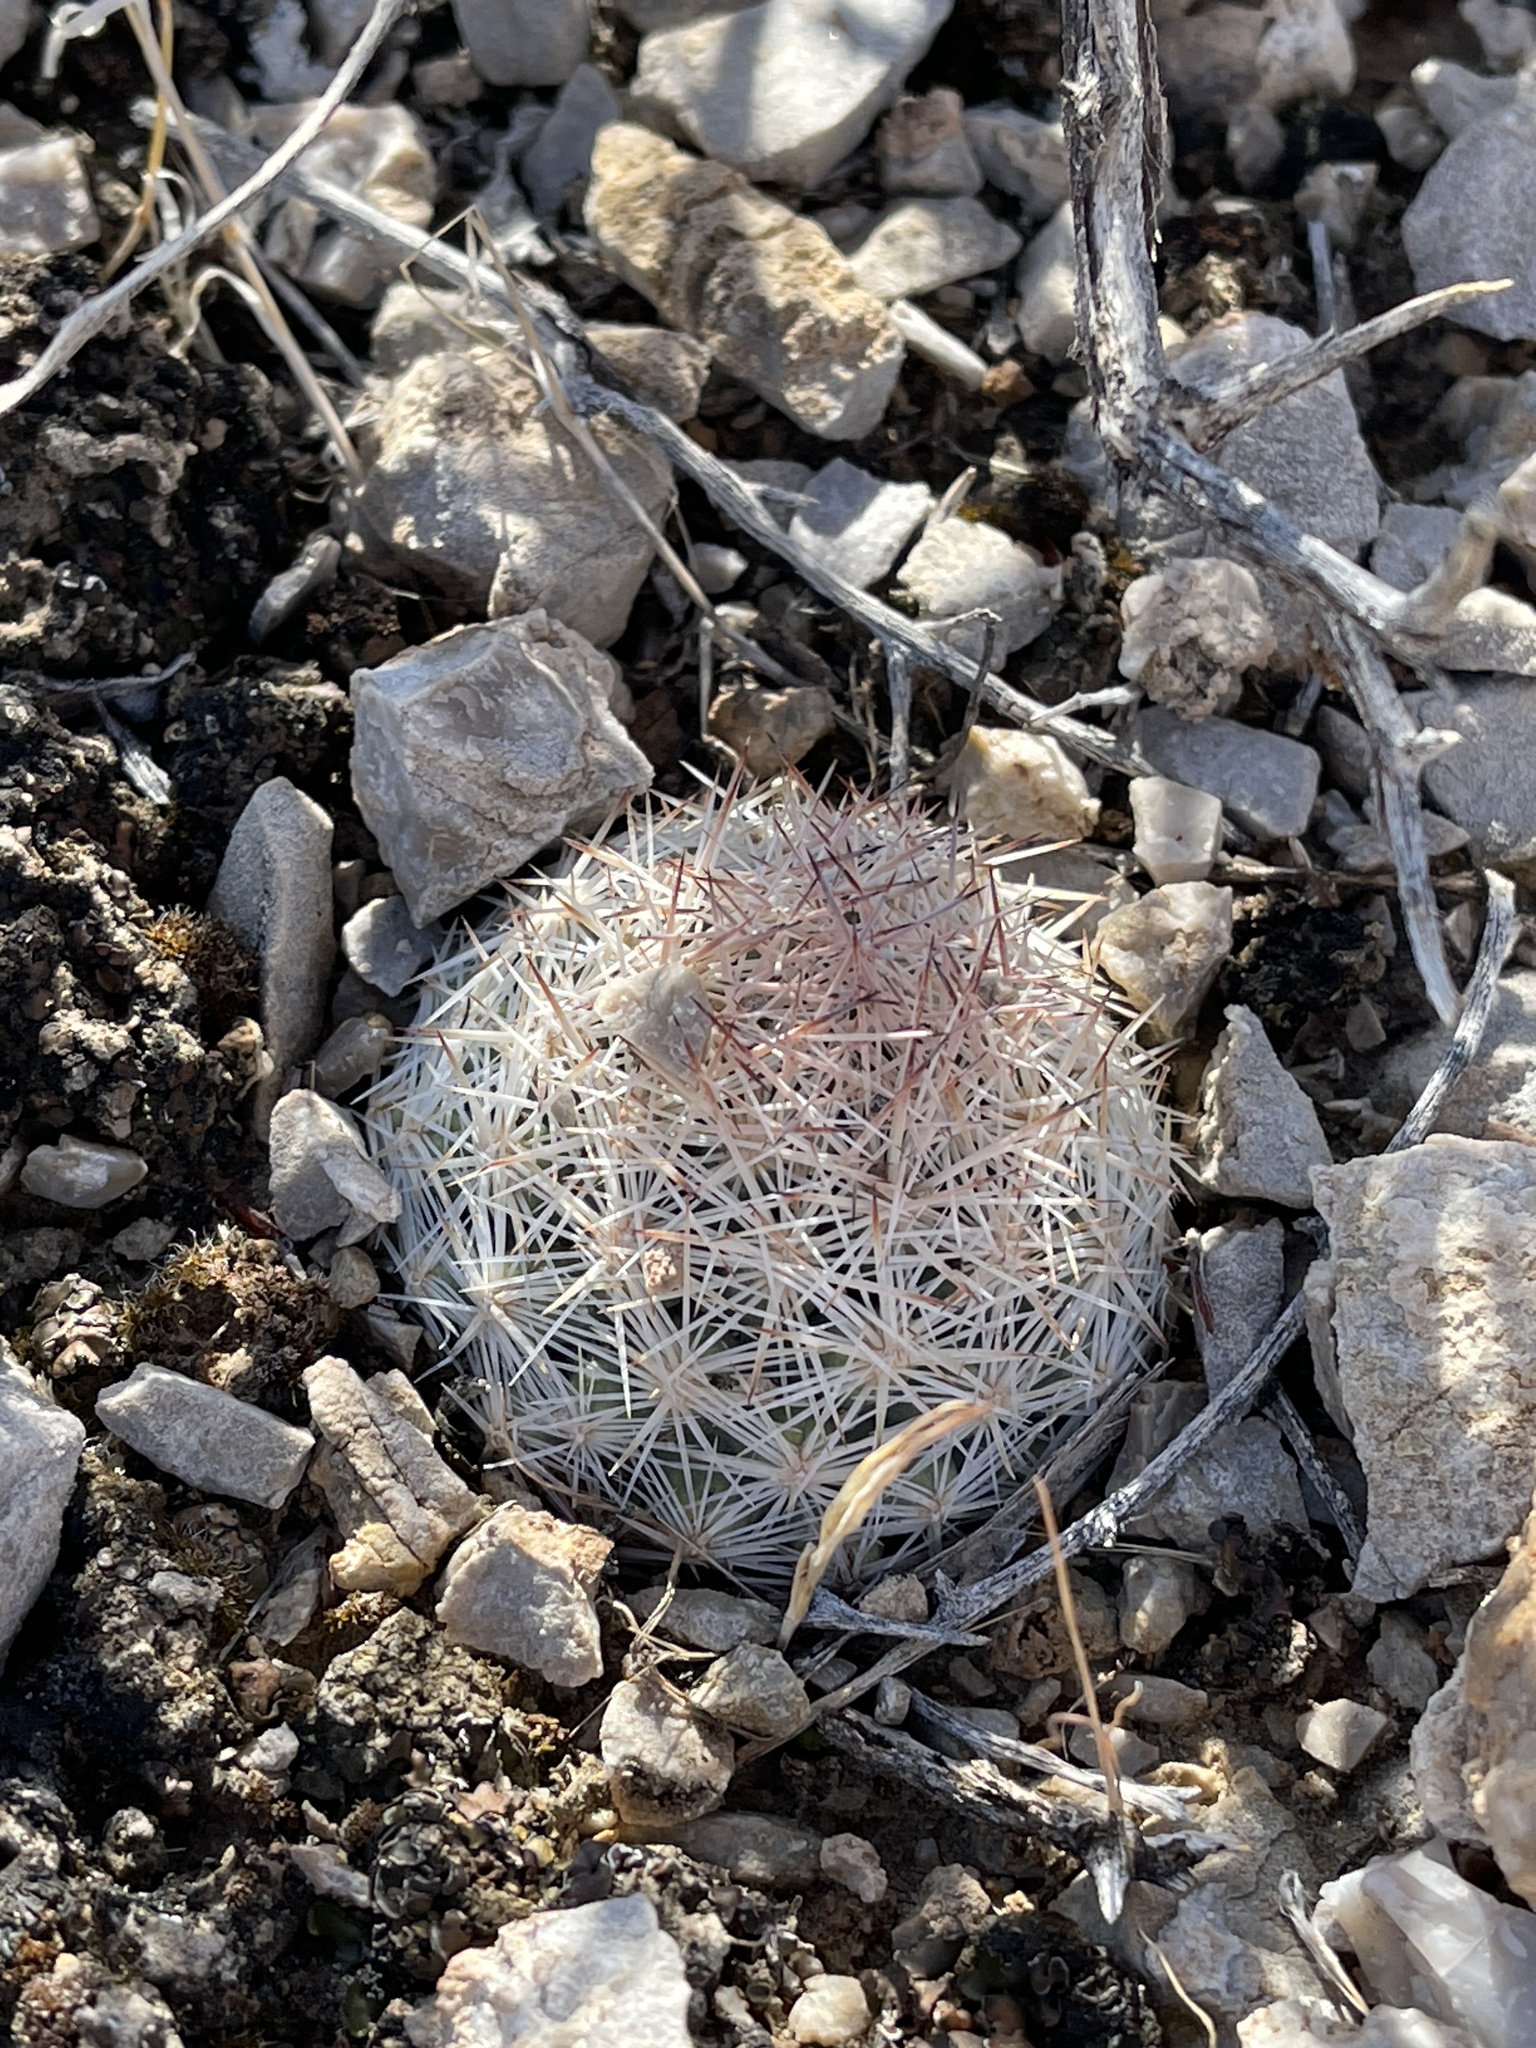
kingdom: Plantae
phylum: Tracheophyta
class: Magnoliopsida
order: Caryophyllales
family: Cactaceae
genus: Pelecyphora
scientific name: Pelecyphora dasyacantha
